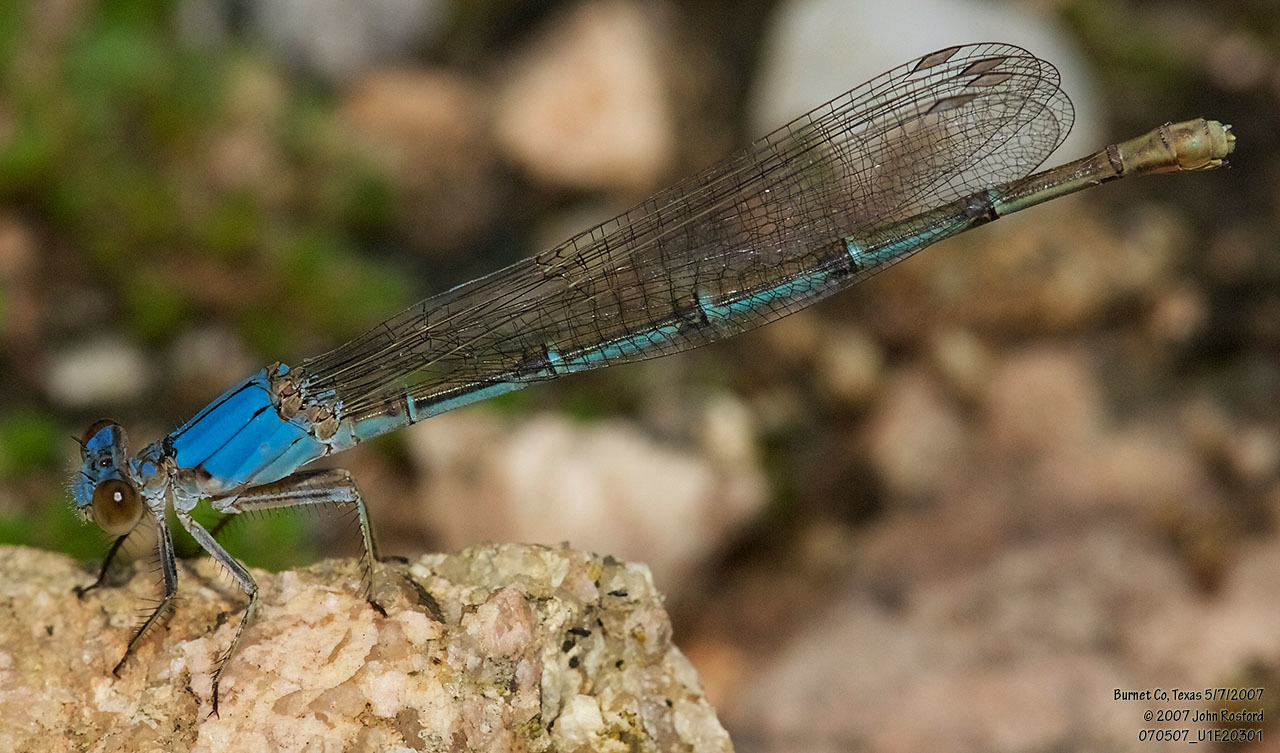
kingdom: Animalia
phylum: Arthropoda
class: Insecta
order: Odonata
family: Coenagrionidae
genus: Argia
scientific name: Argia moesta
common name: Powdered dancer
